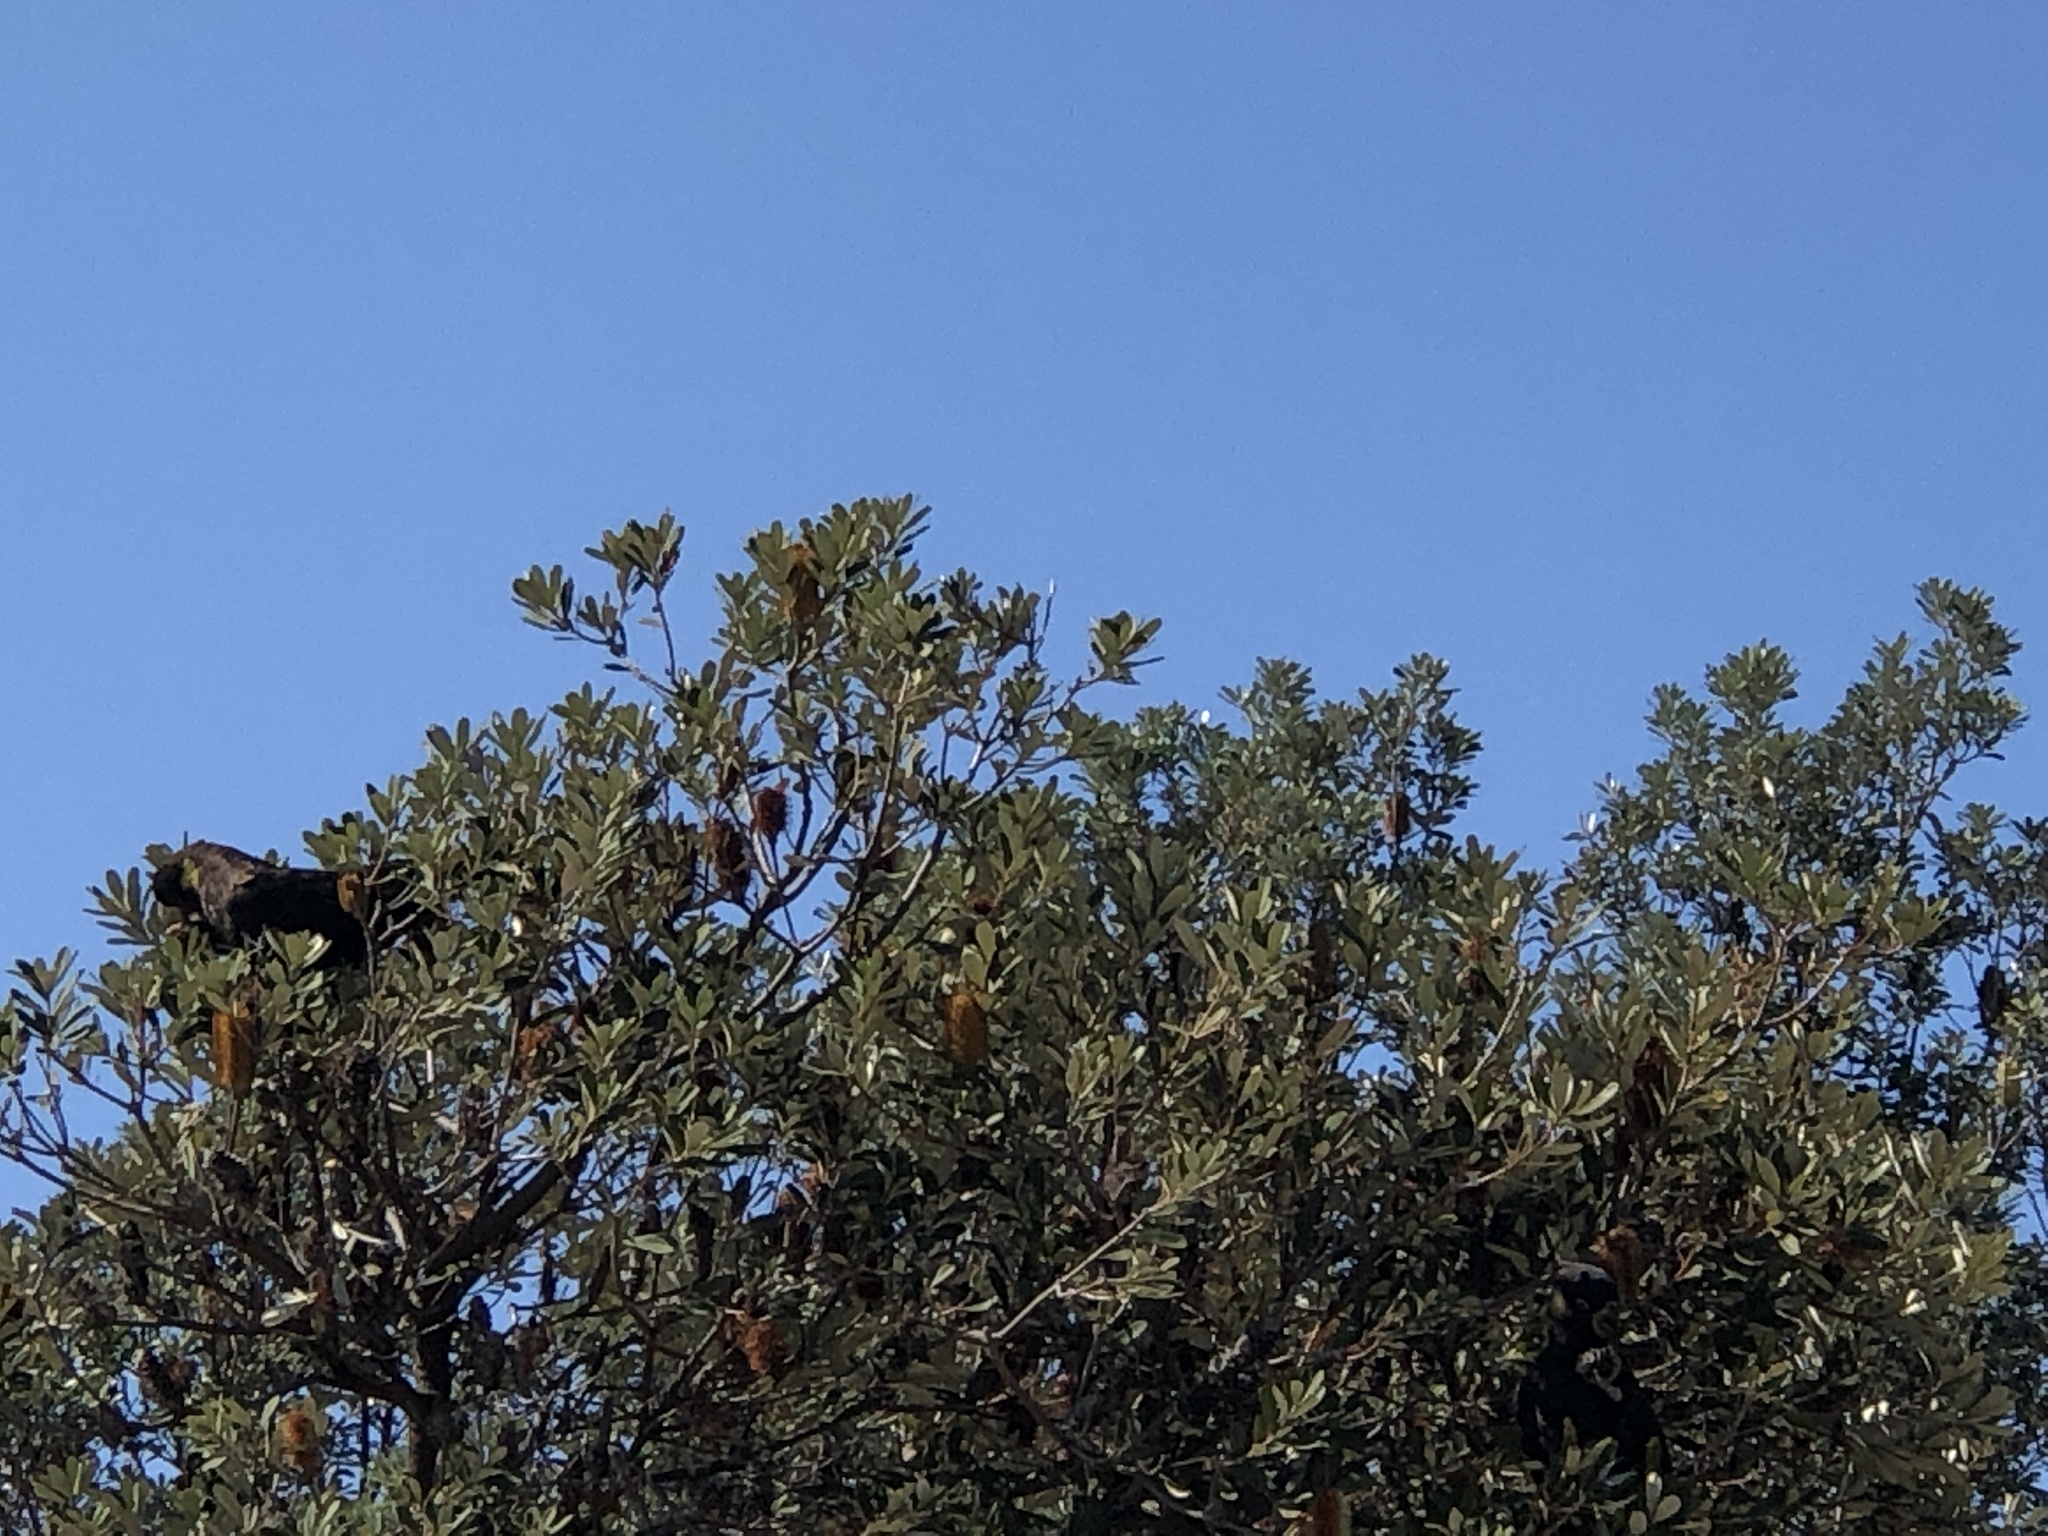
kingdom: Animalia
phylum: Chordata
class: Aves
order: Psittaciformes
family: Cacatuidae
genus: Zanda
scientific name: Zanda funerea
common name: Yellow-tailed black-cockatoo
